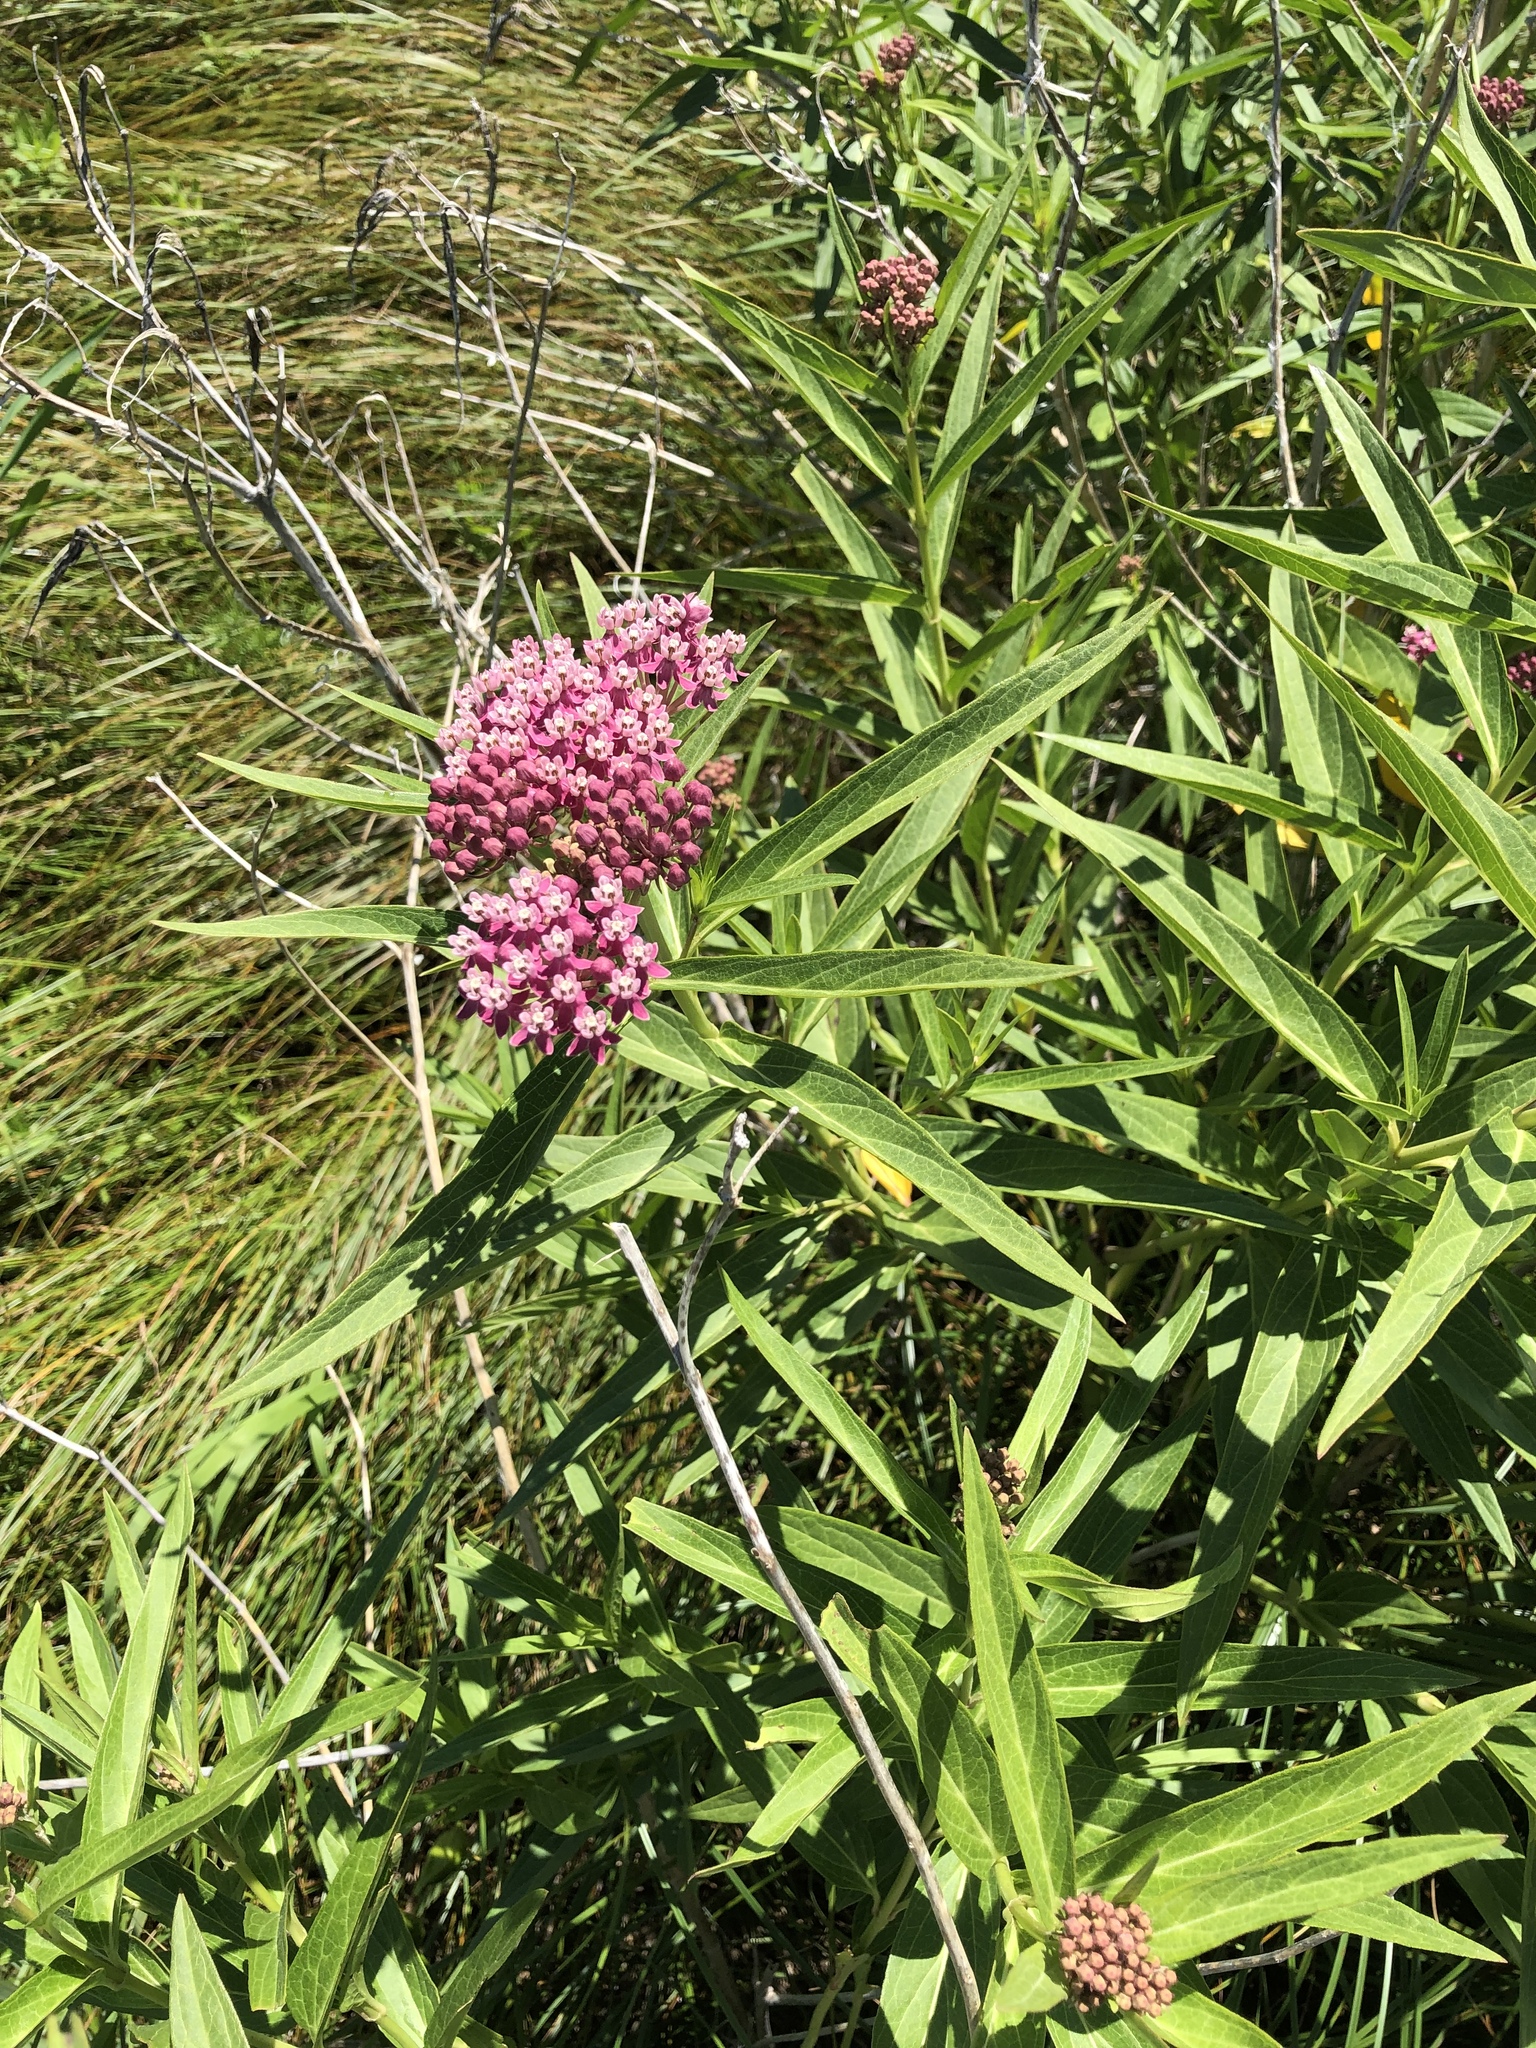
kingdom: Plantae
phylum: Tracheophyta
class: Magnoliopsida
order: Gentianales
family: Apocynaceae
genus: Asclepias
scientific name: Asclepias incarnata
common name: Swamp milkweed
